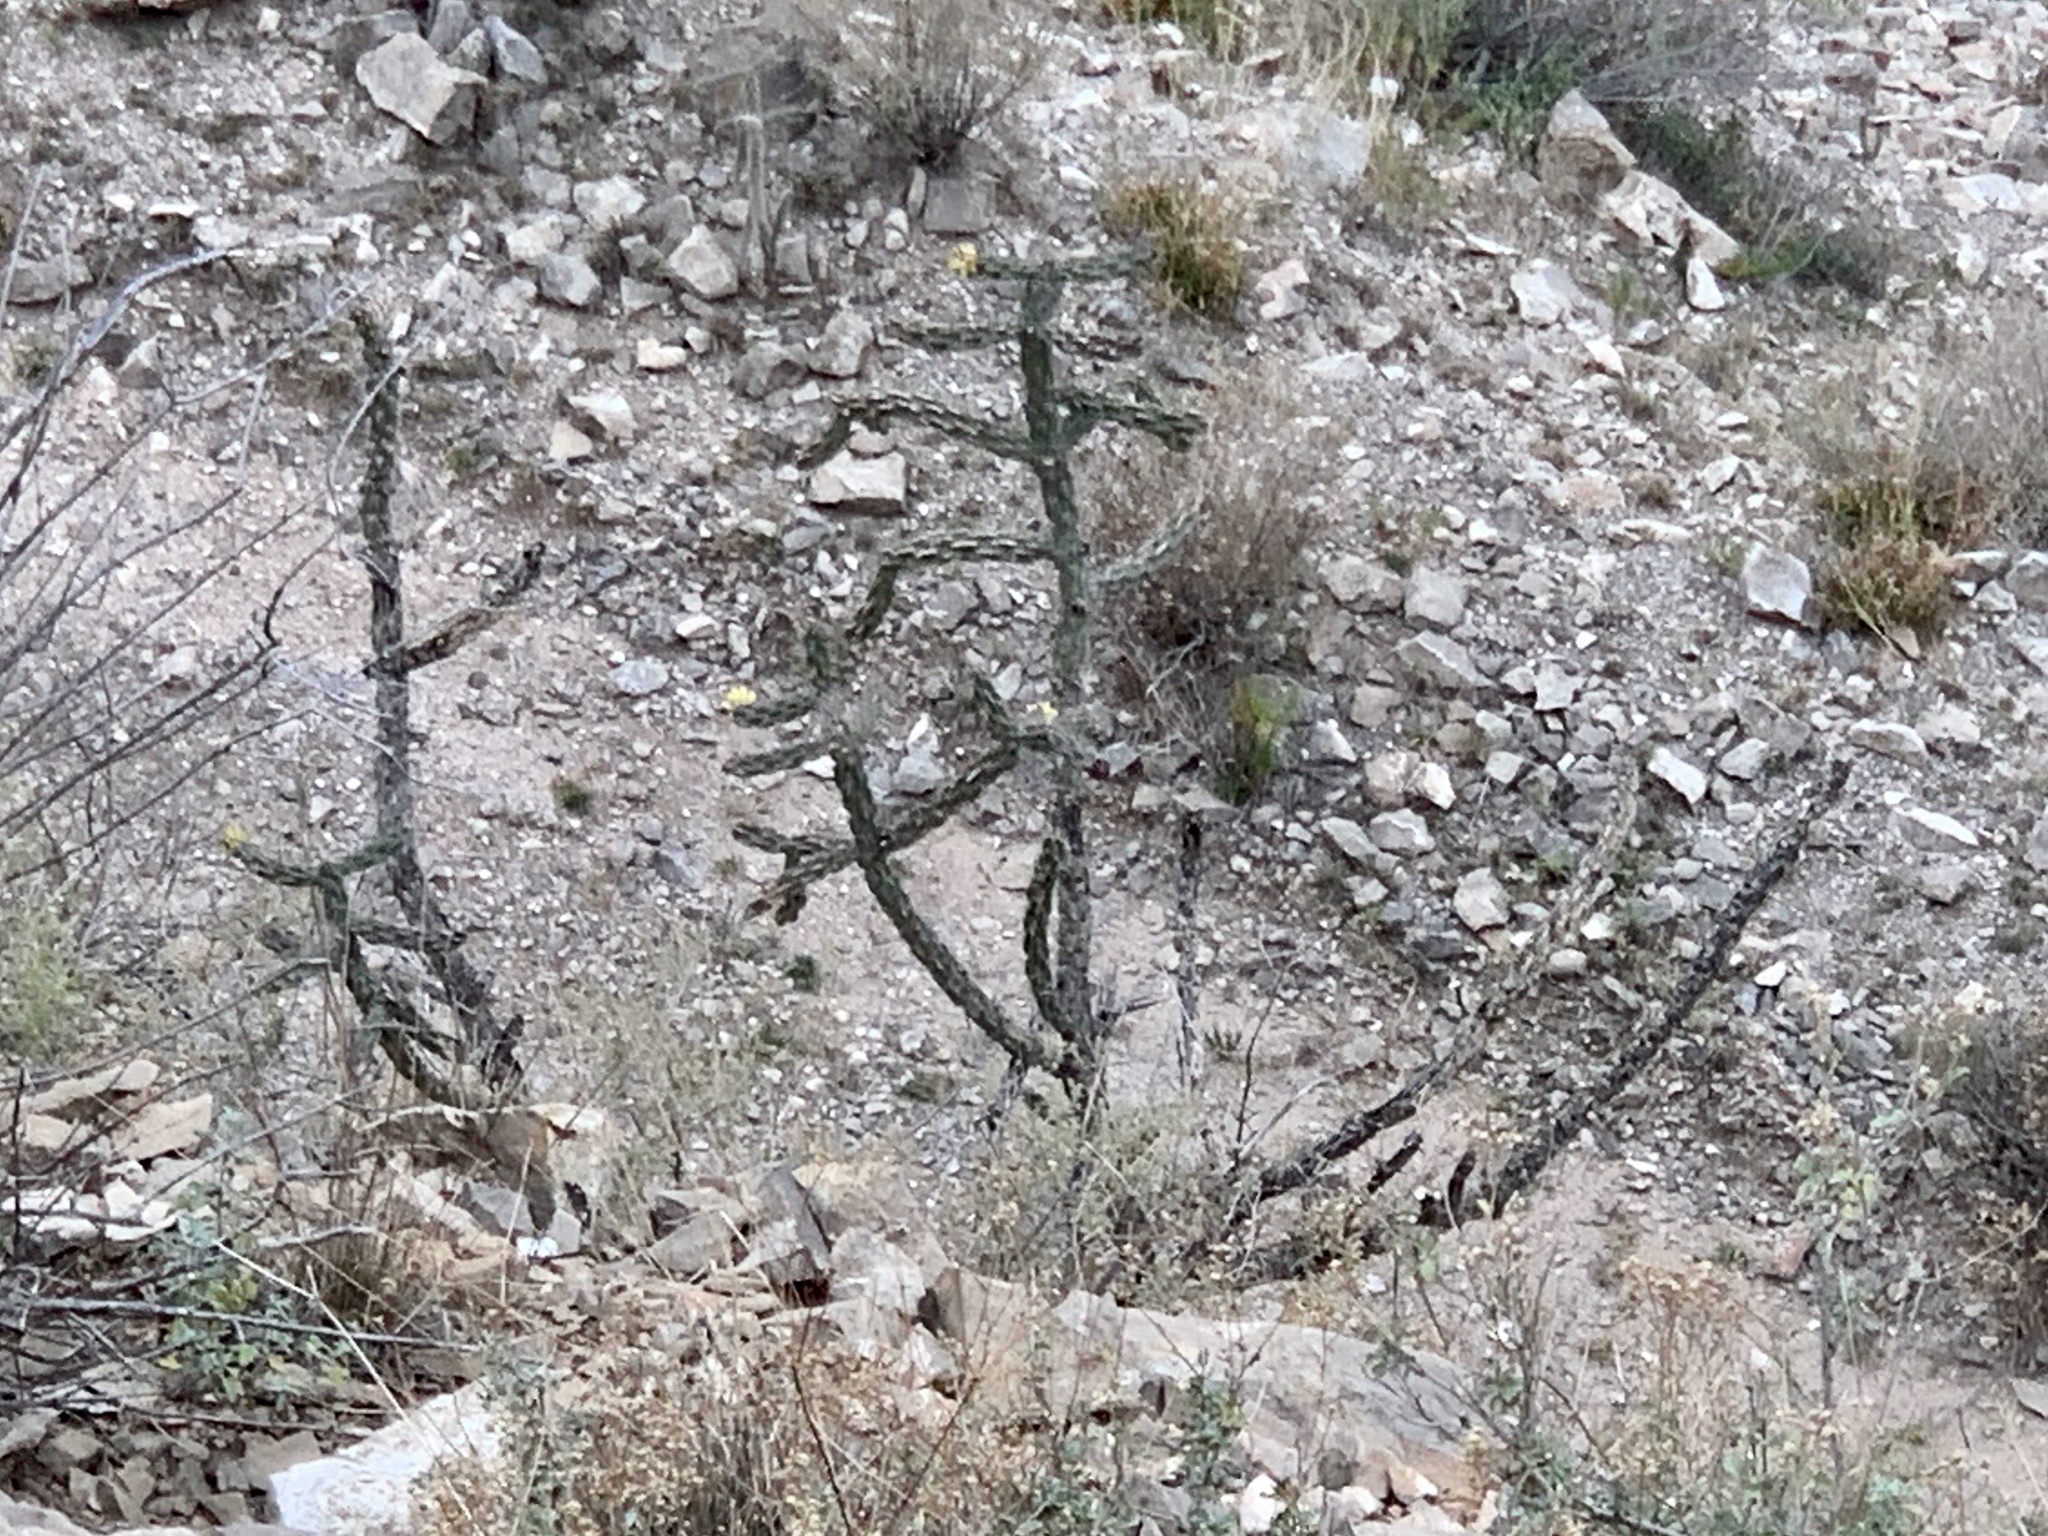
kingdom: Plantae
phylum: Tracheophyta
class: Magnoliopsida
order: Caryophyllales
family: Cactaceae
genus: Cylindropuntia
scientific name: Cylindropuntia imbricata
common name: Candelabrum cactus
